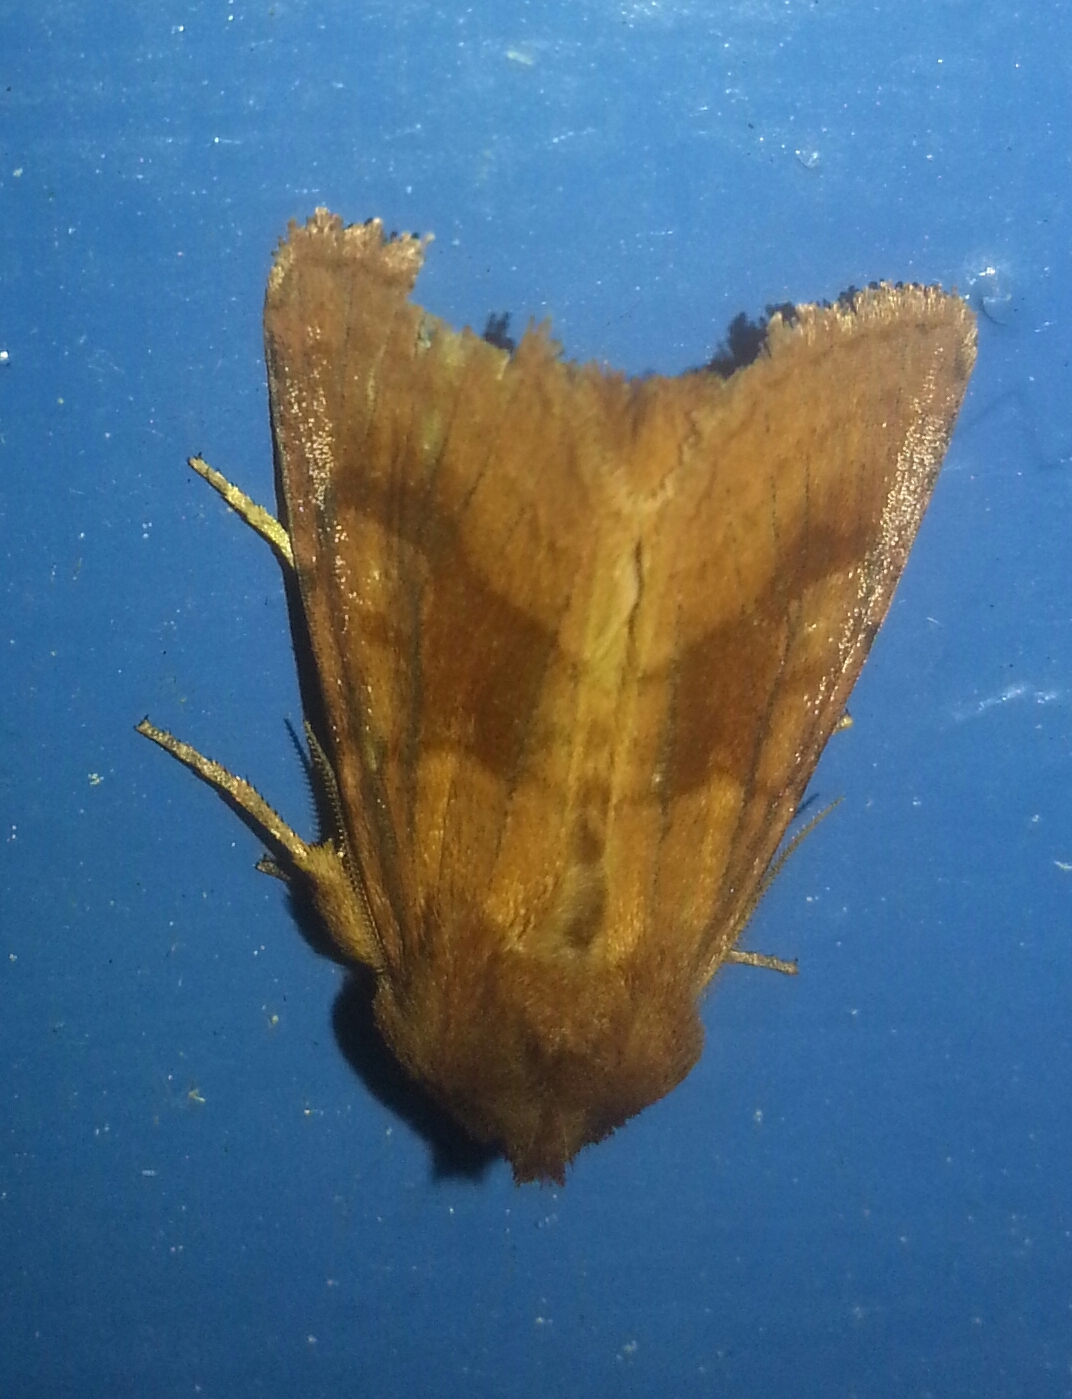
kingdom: Animalia
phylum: Arthropoda
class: Insecta
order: Lepidoptera
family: Noctuidae
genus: Nephelodes
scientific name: Nephelodes minians
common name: Bronzed cutworm
